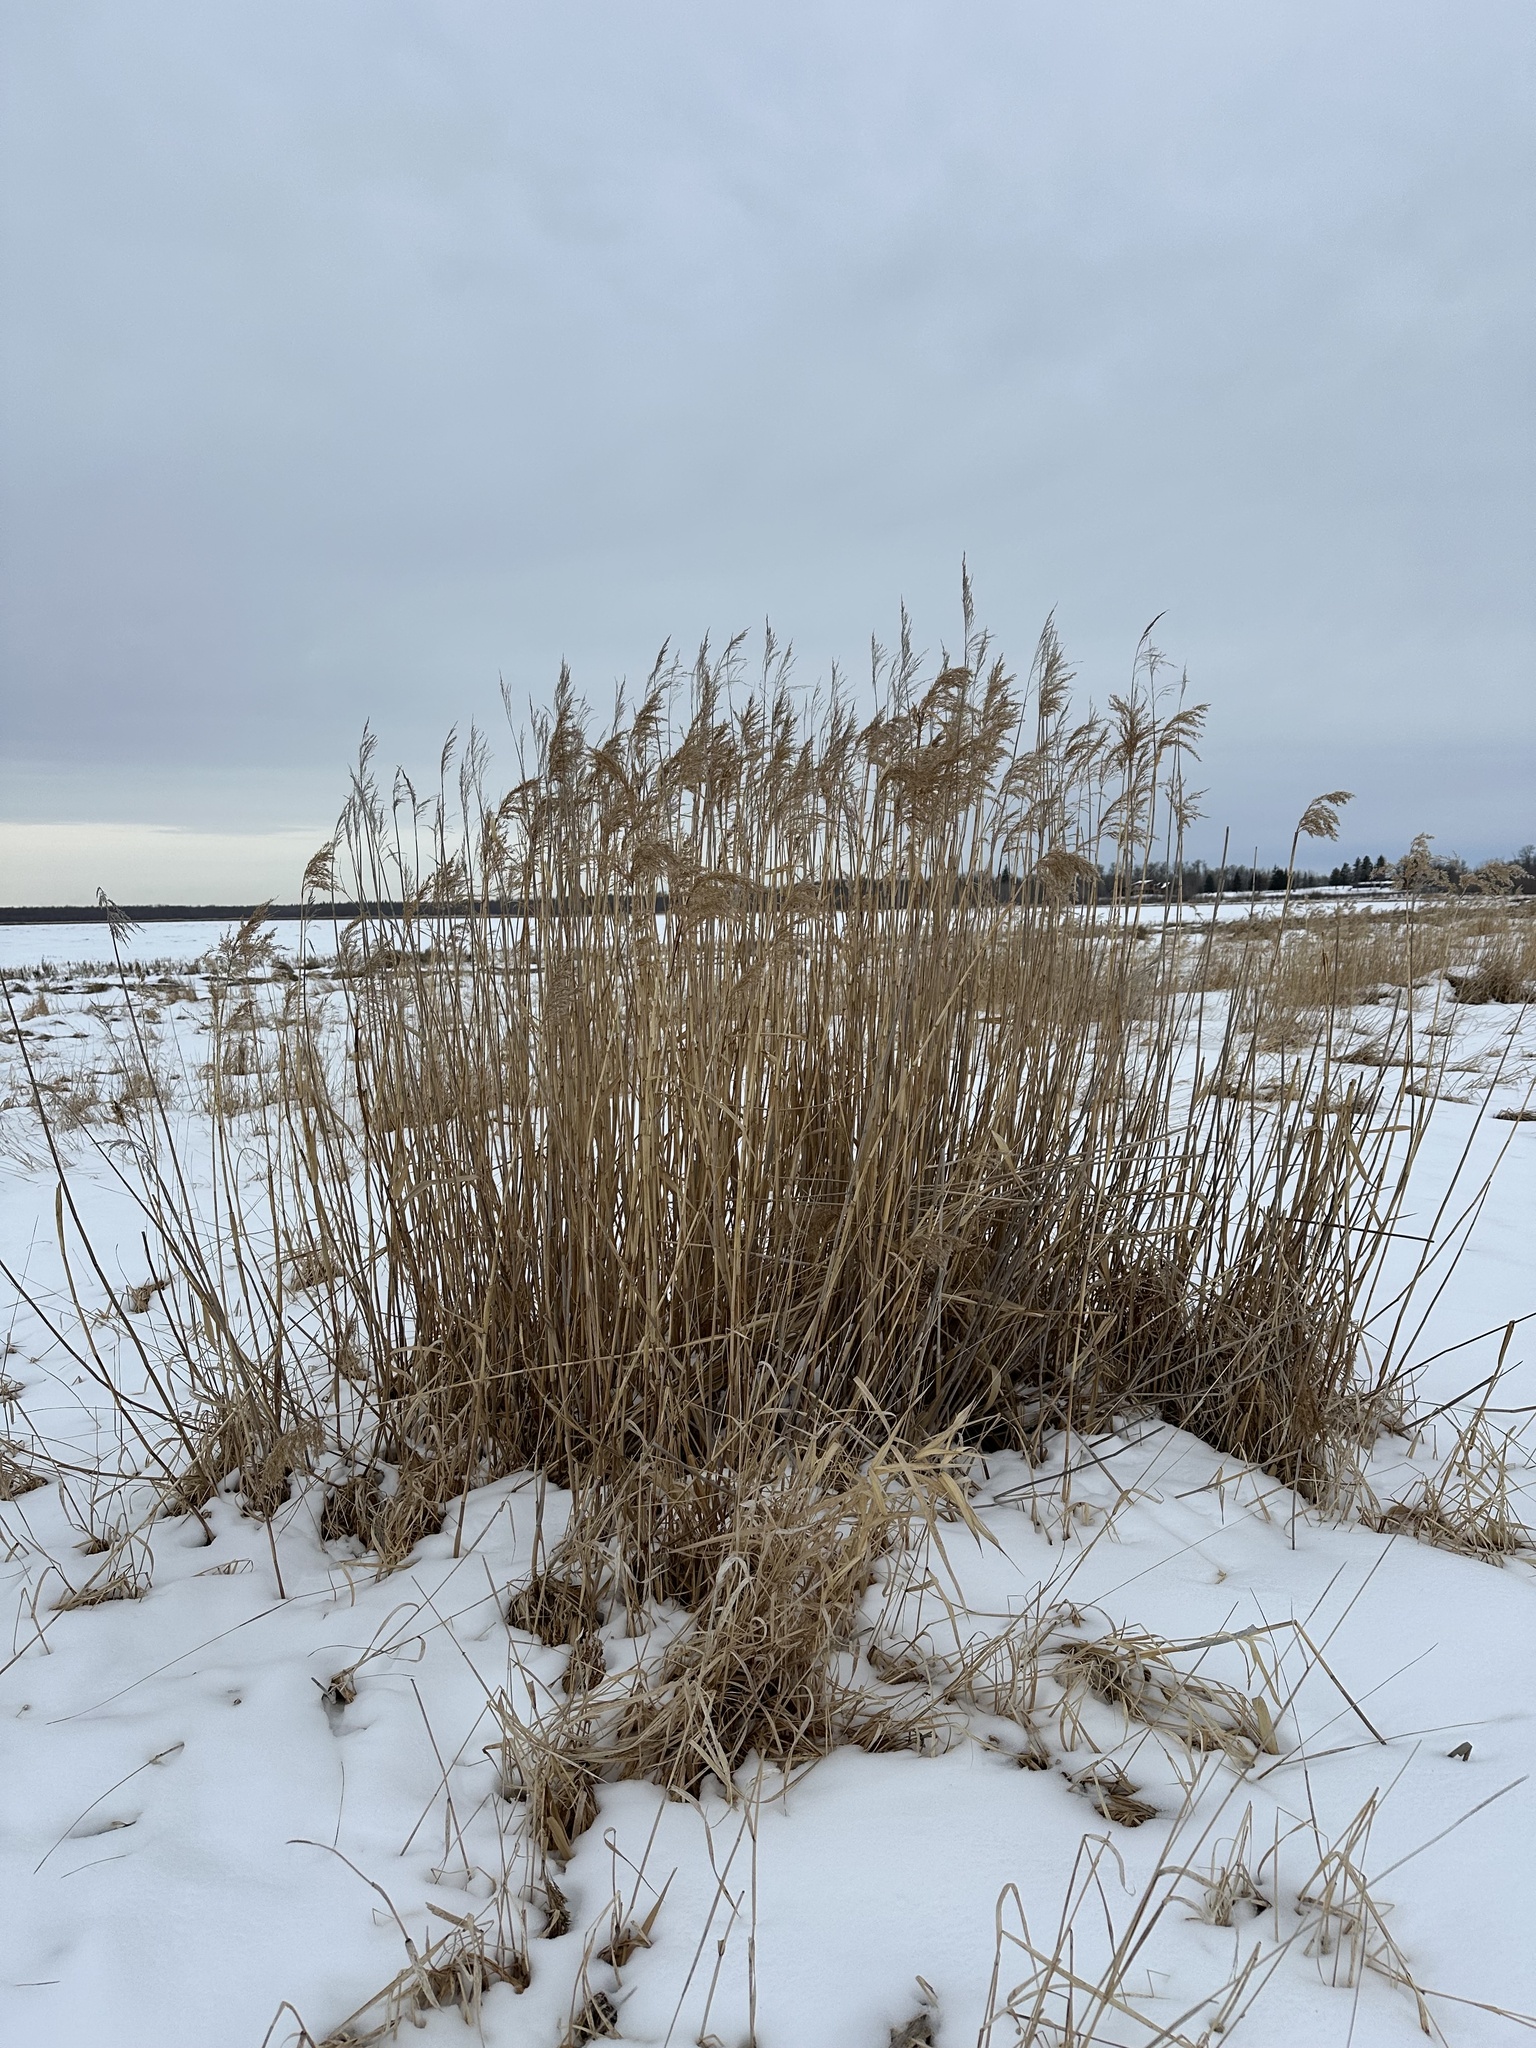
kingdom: Plantae
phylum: Tracheophyta
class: Liliopsida
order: Poales
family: Poaceae
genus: Phragmites
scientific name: Phragmites australis
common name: Common reed
